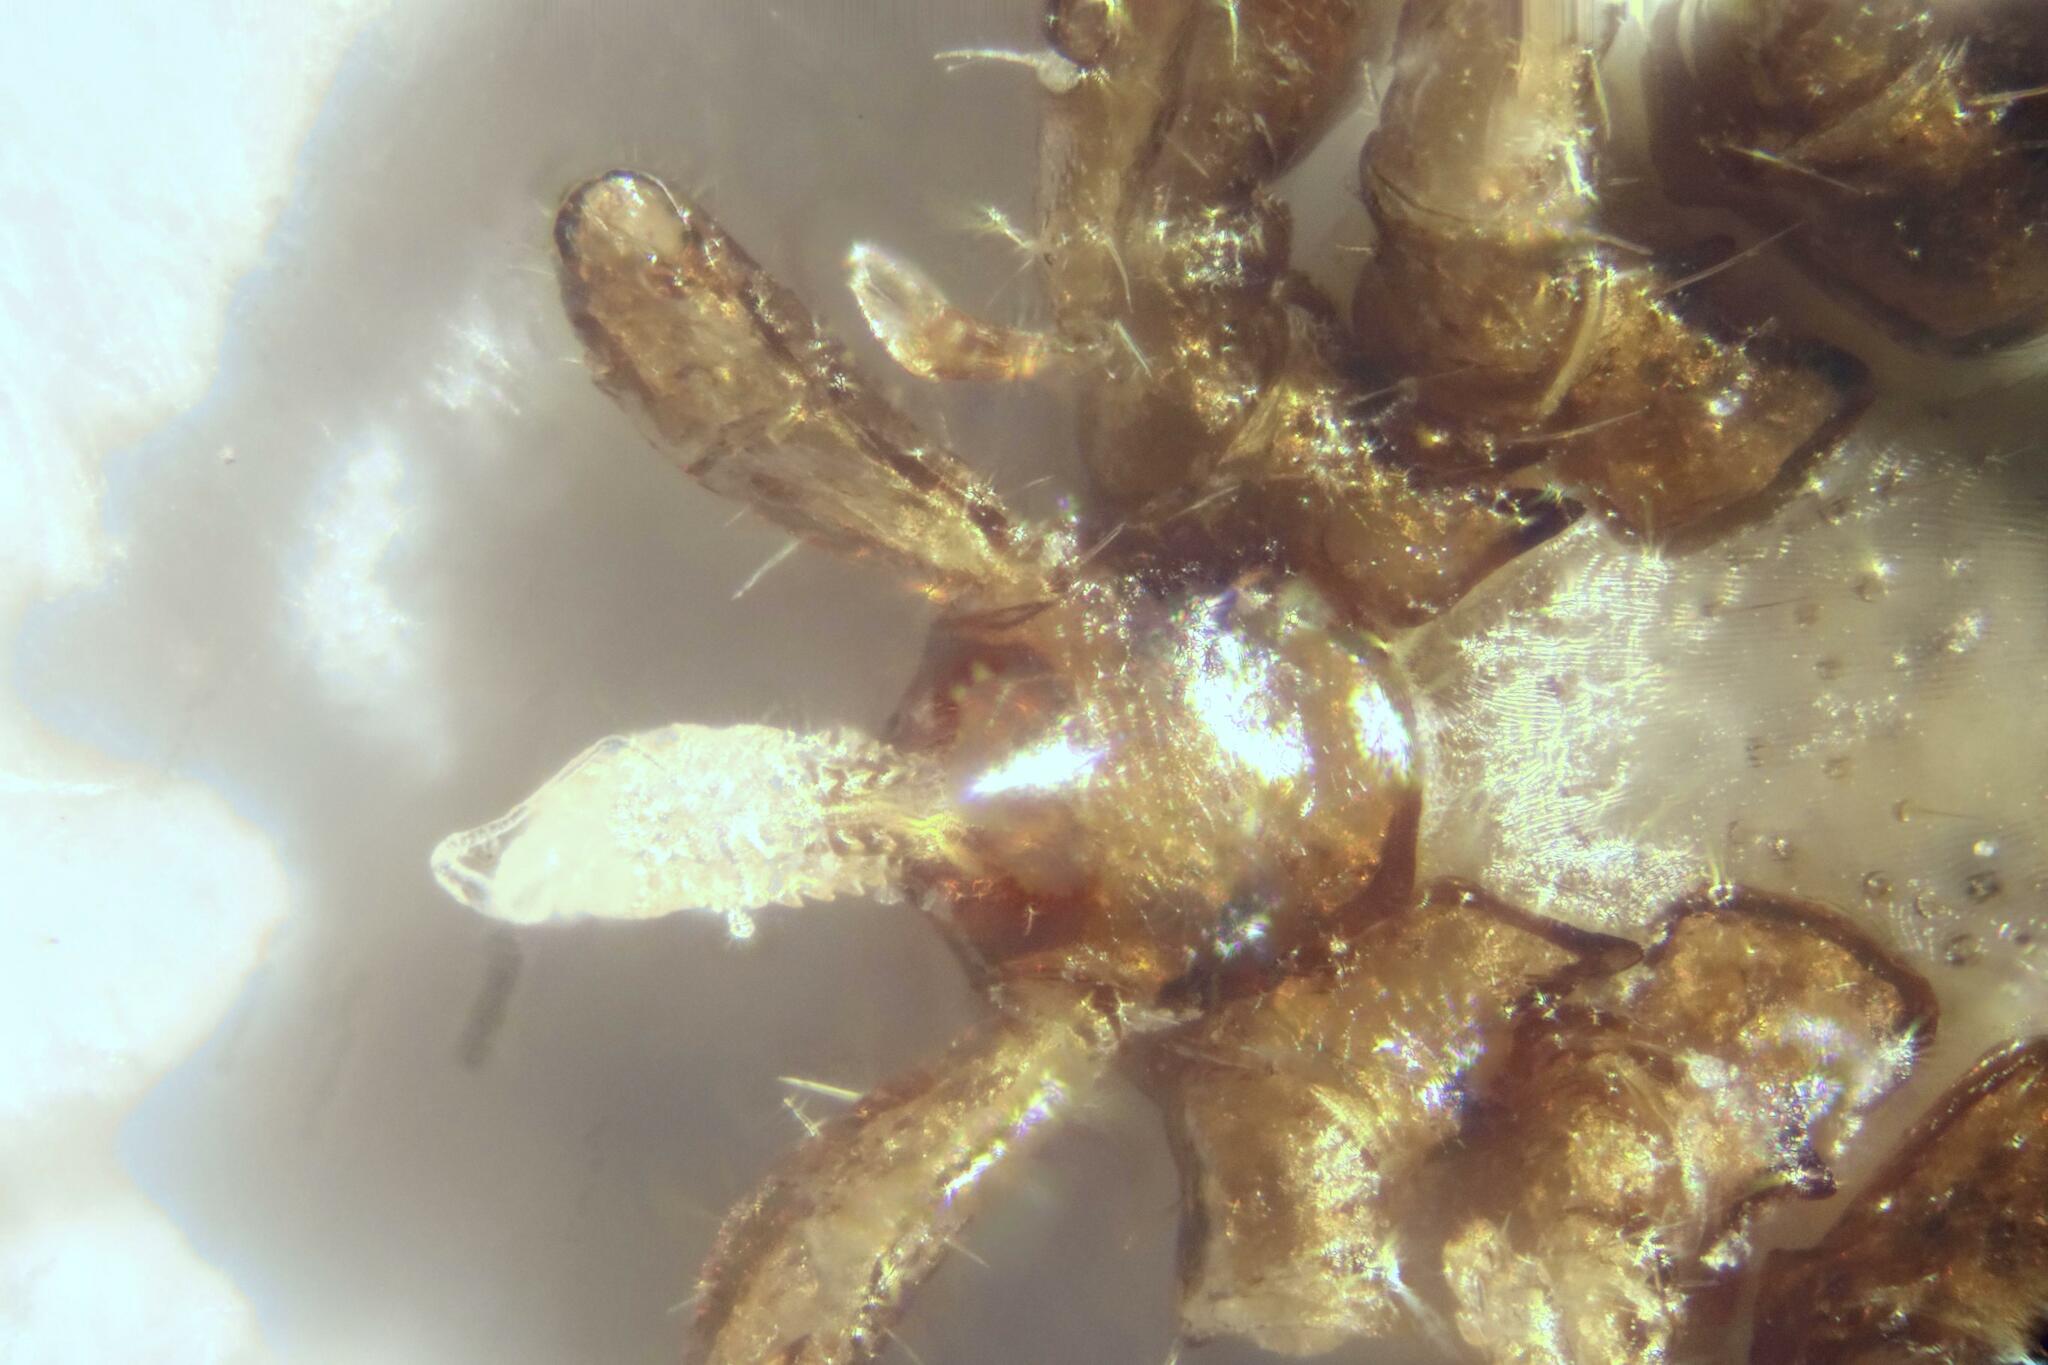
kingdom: Animalia
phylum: Arthropoda
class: Arachnida
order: Ixodida
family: Ixodidae
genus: Ixodes
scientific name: Ixodes ricinus
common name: Castor bean tick
